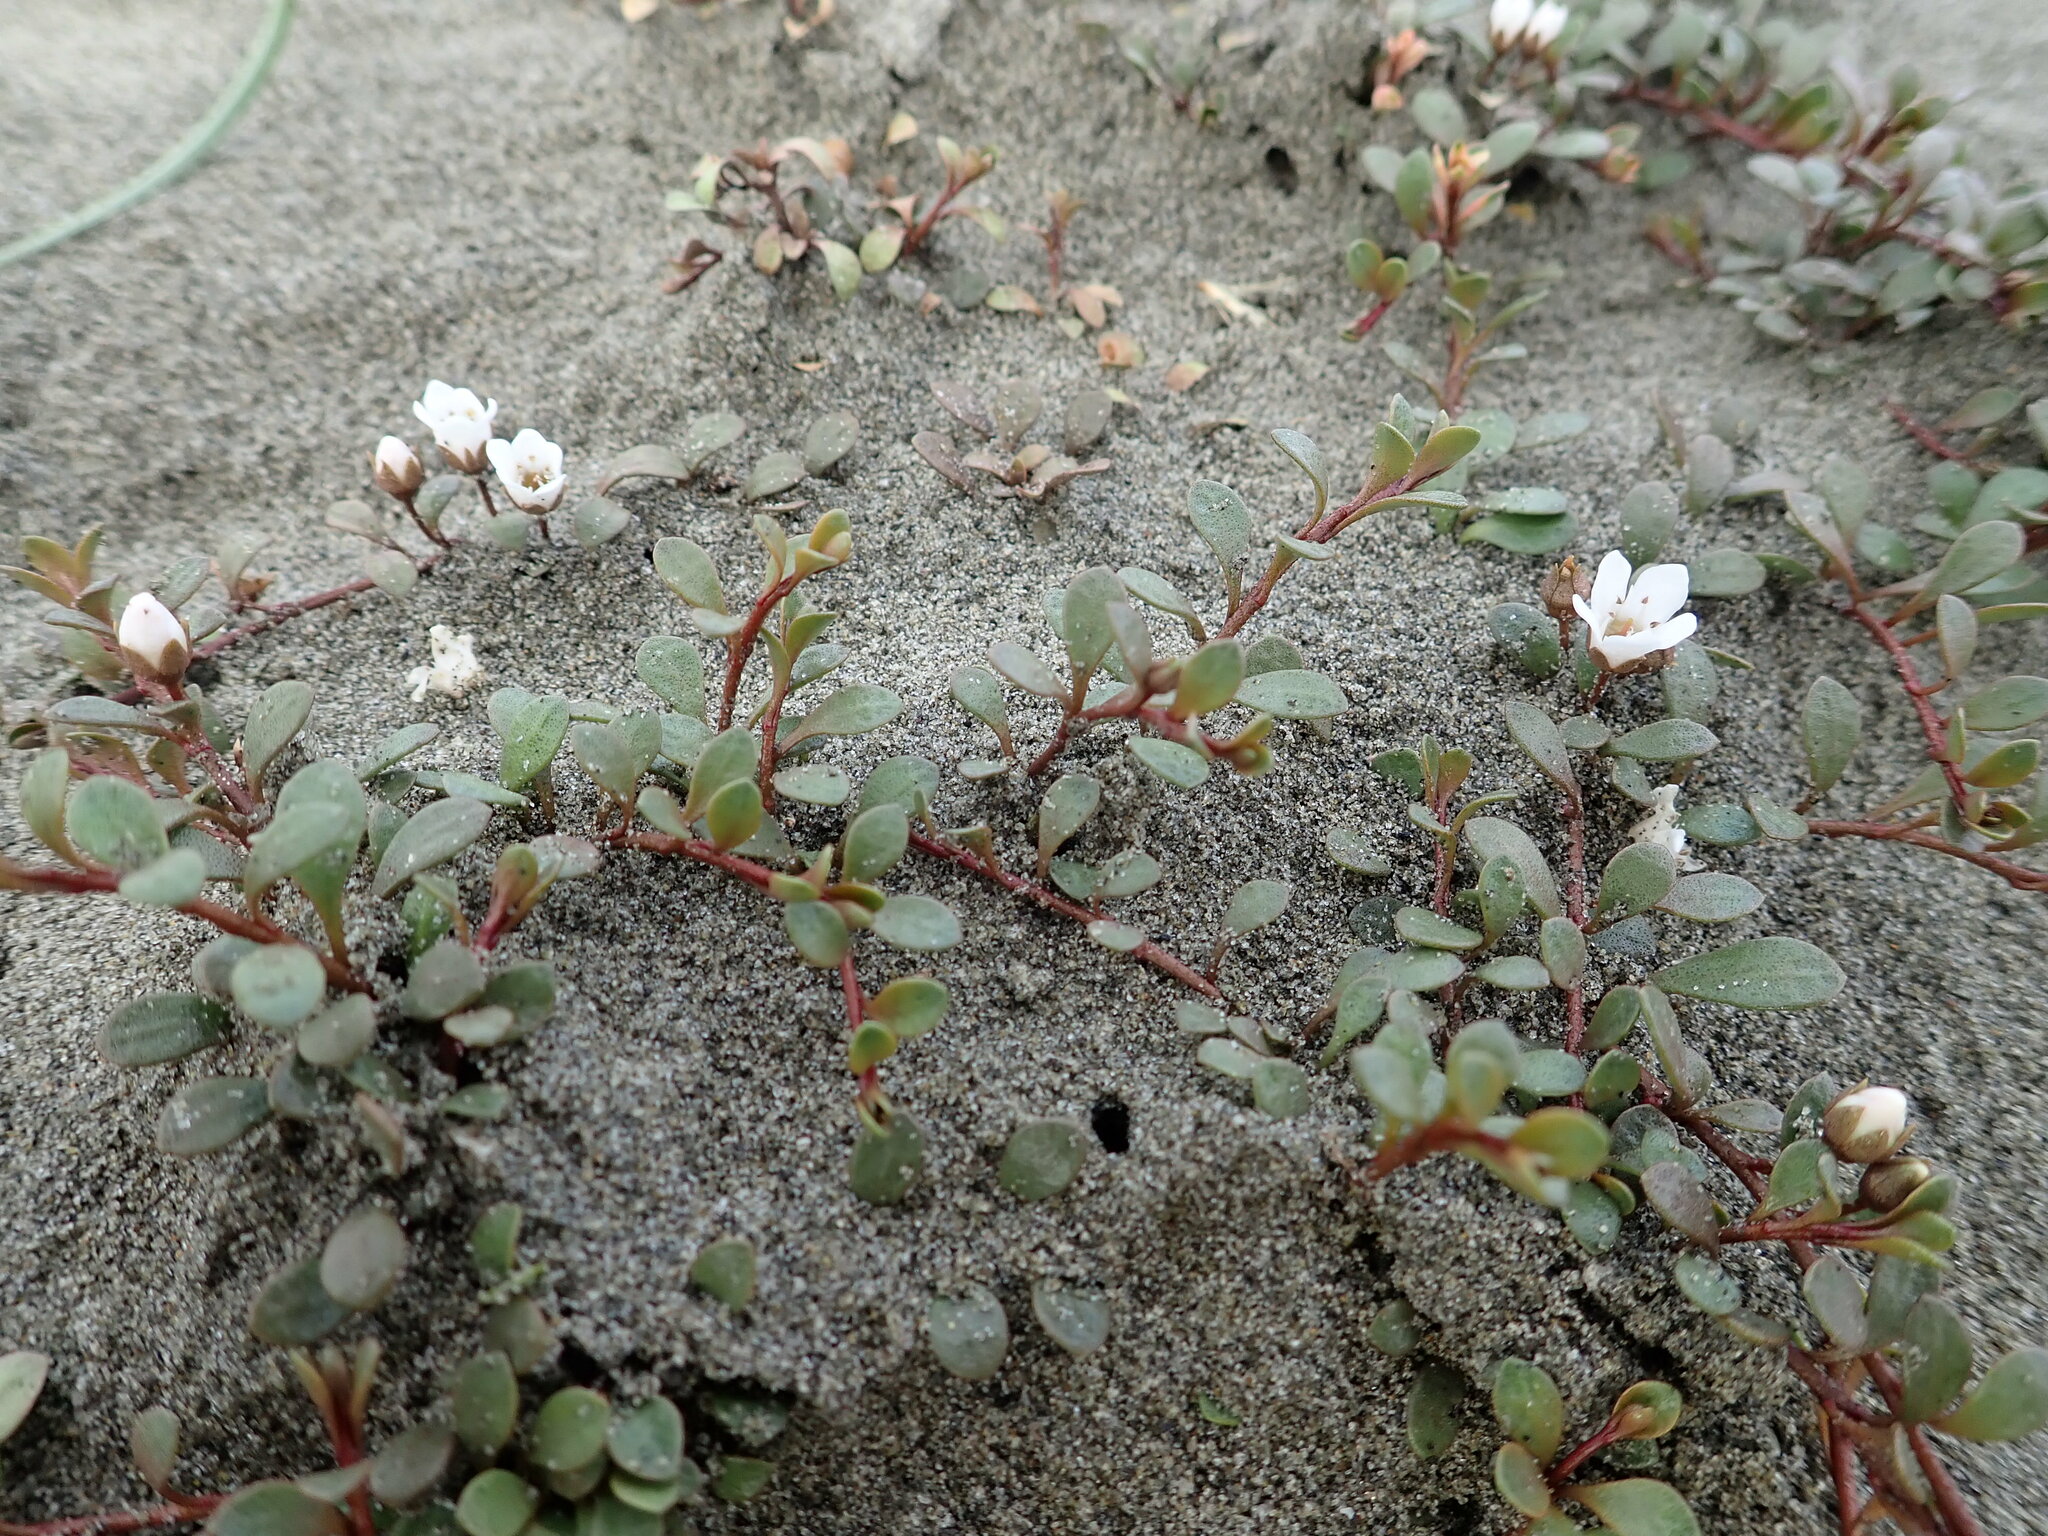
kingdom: Plantae
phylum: Tracheophyta
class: Magnoliopsida
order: Ericales
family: Primulaceae
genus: Samolus
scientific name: Samolus repens
